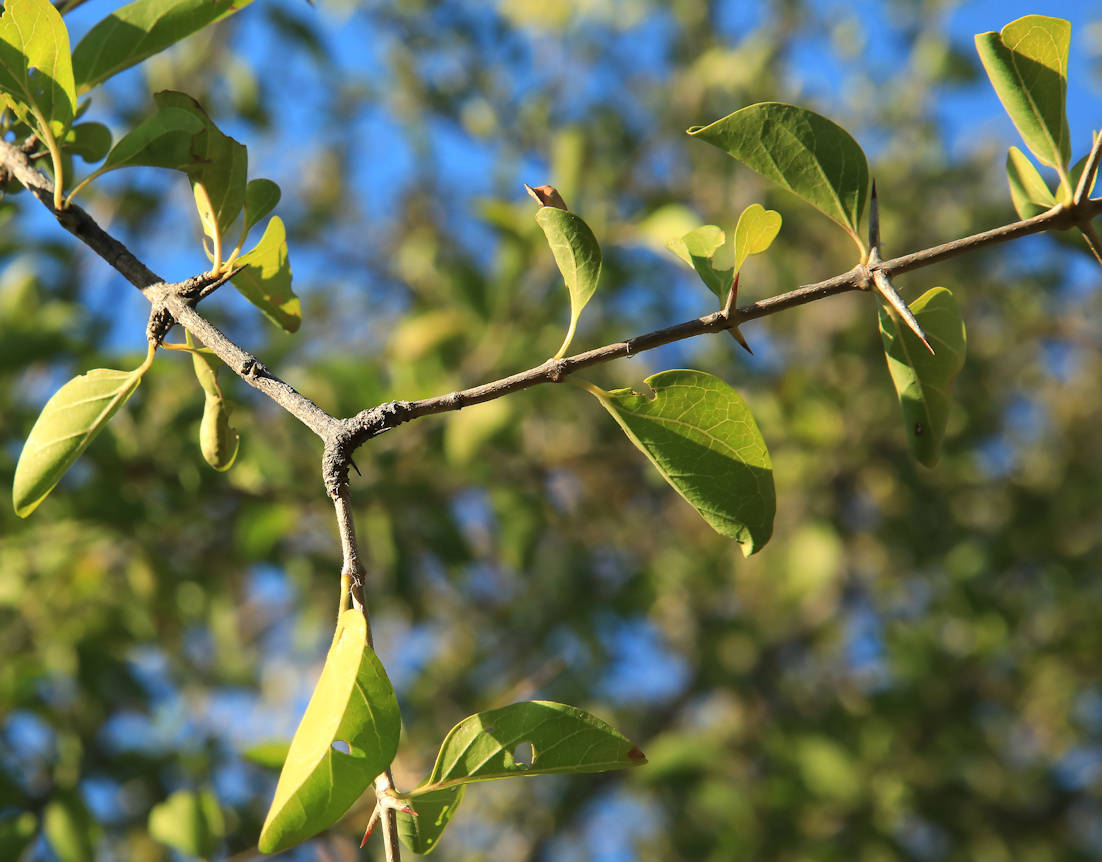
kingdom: Plantae
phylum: Tracheophyta
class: Magnoliopsida
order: Gentianales
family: Rubiaceae
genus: Plectroniella
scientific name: Plectroniella armata
